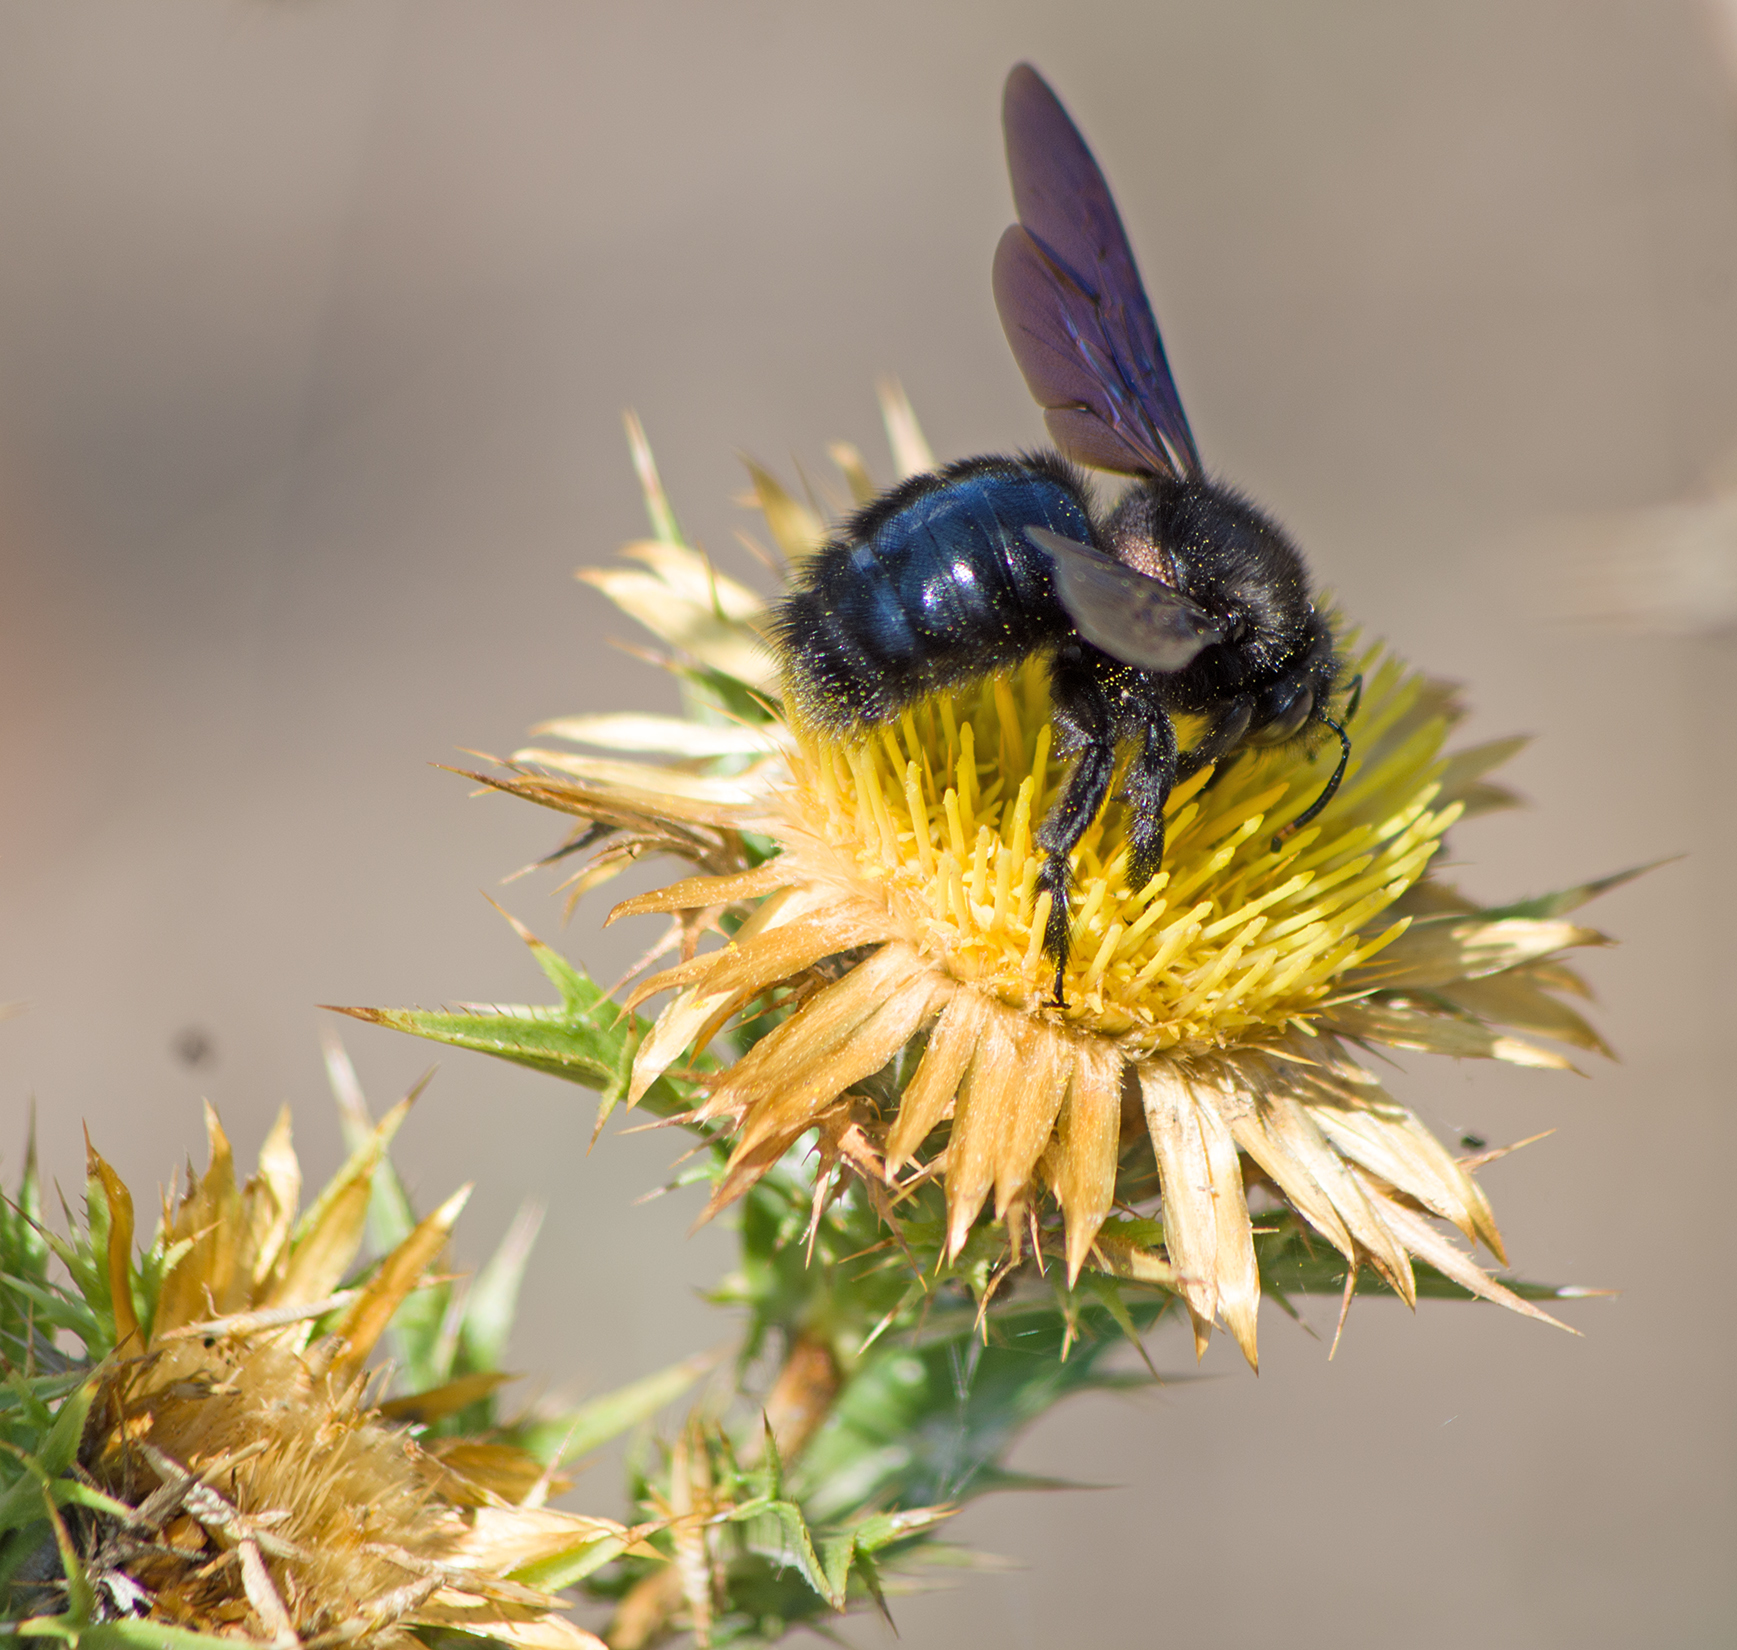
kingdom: Animalia
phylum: Arthropoda
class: Insecta
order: Hymenoptera
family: Apidae
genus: Xylocopa
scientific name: Xylocopa violacea
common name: Violet carpenter bee
